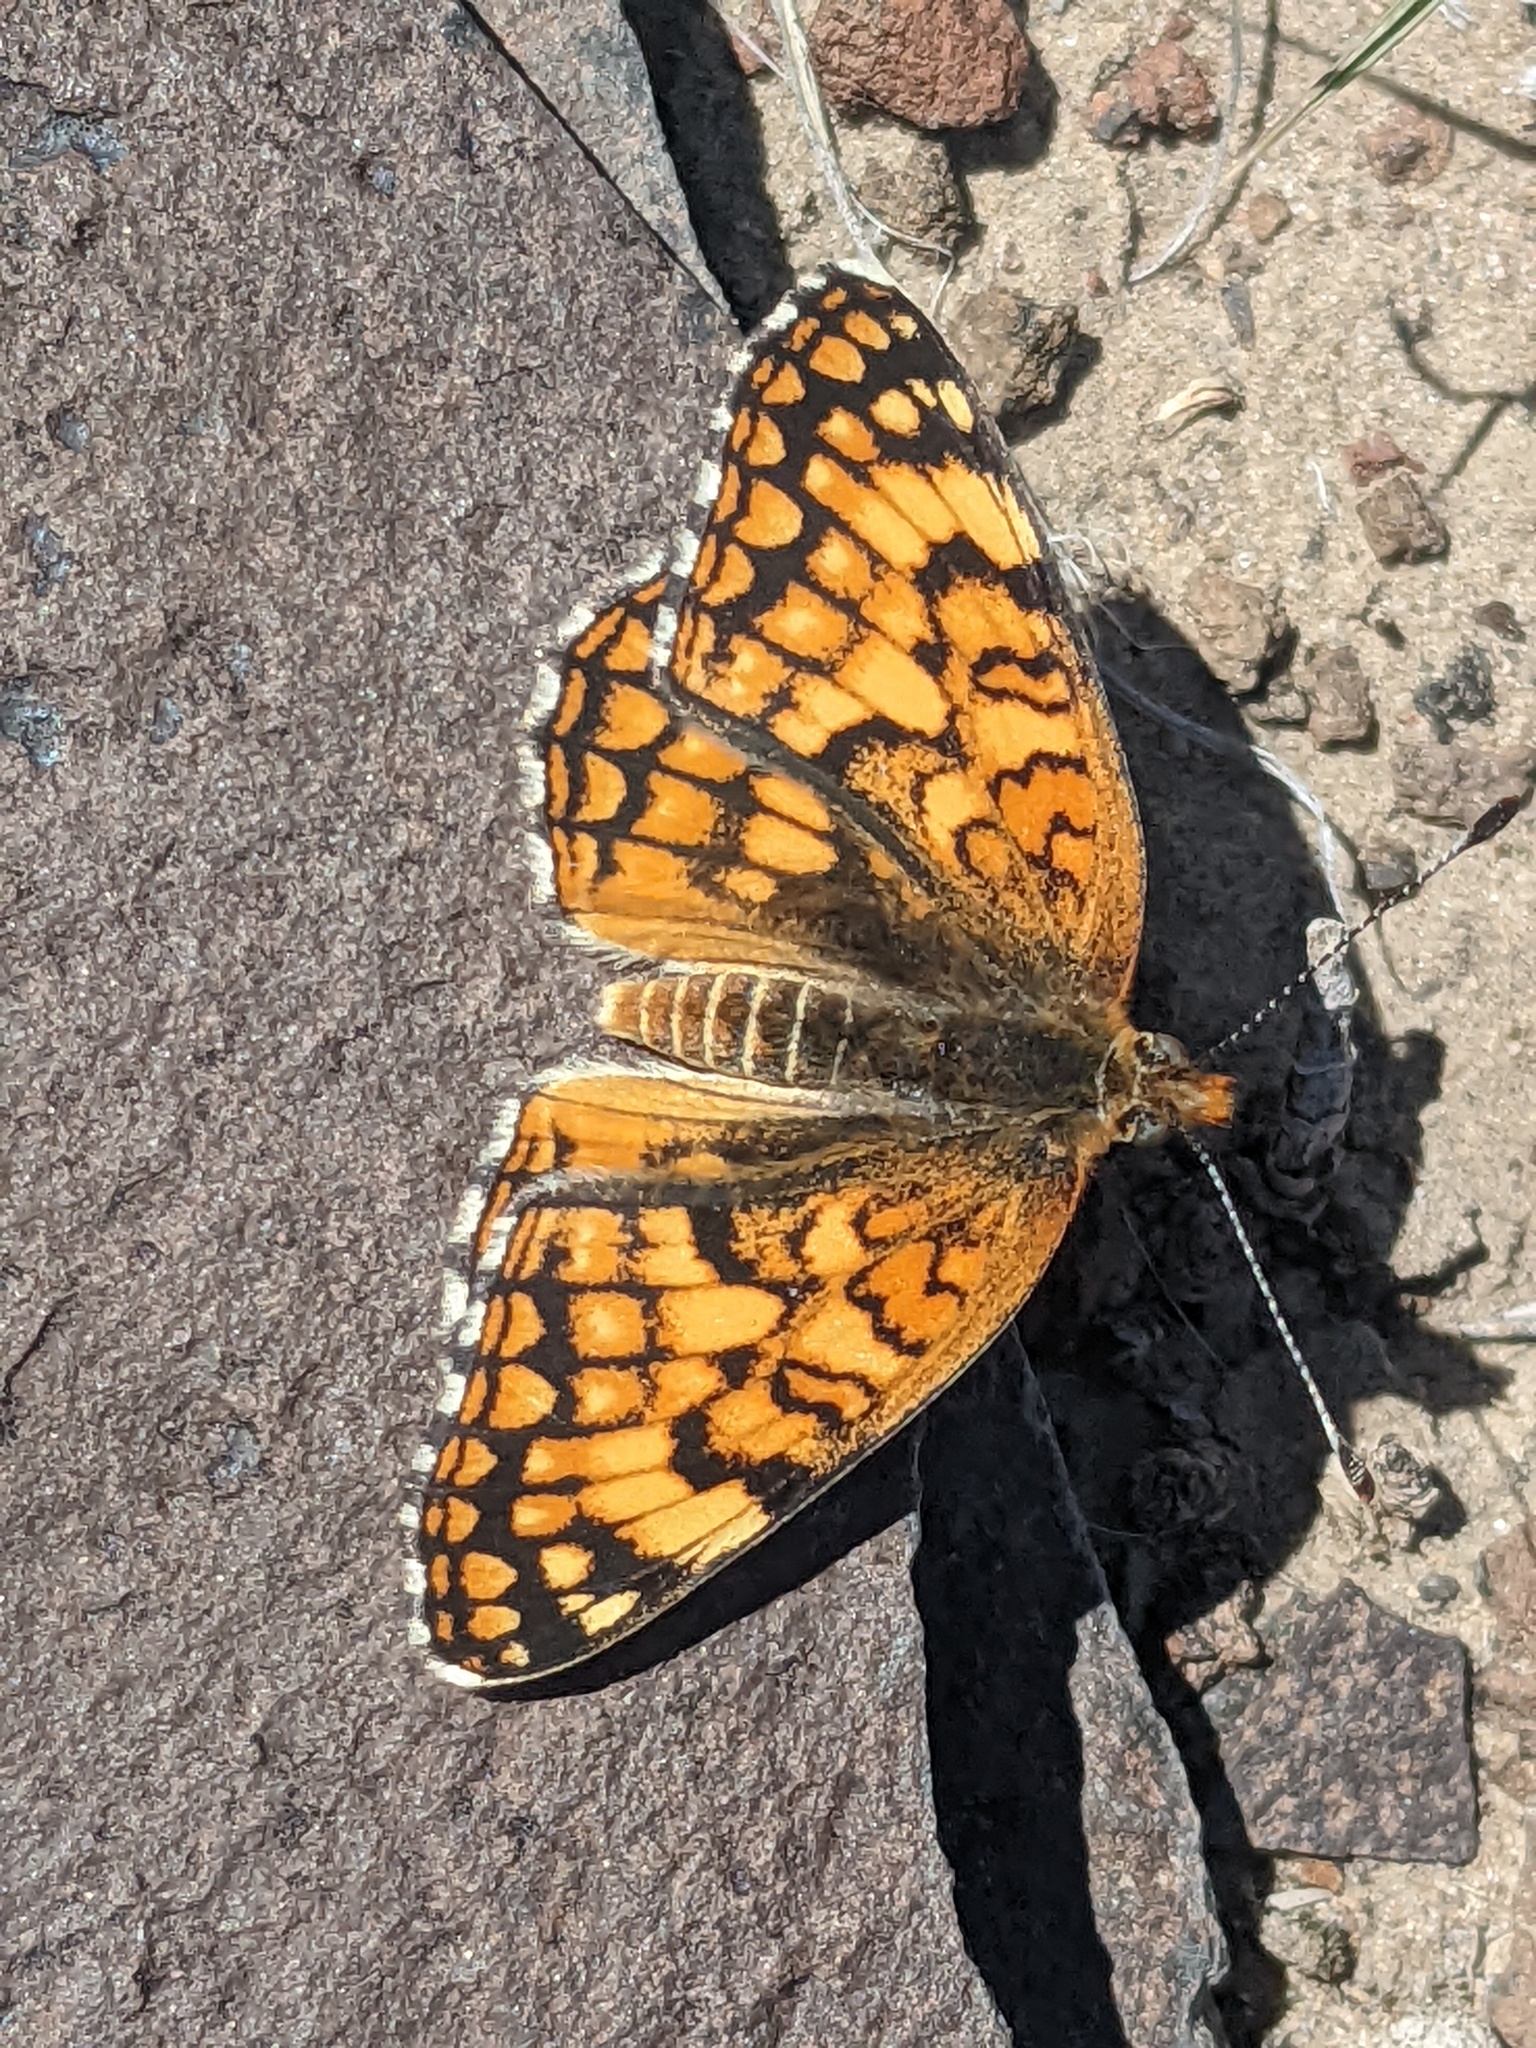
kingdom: Animalia
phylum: Arthropoda
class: Insecta
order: Lepidoptera
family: Nymphalidae
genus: Chlosyne
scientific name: Chlosyne acastus
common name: Sagebrush checkerspot
